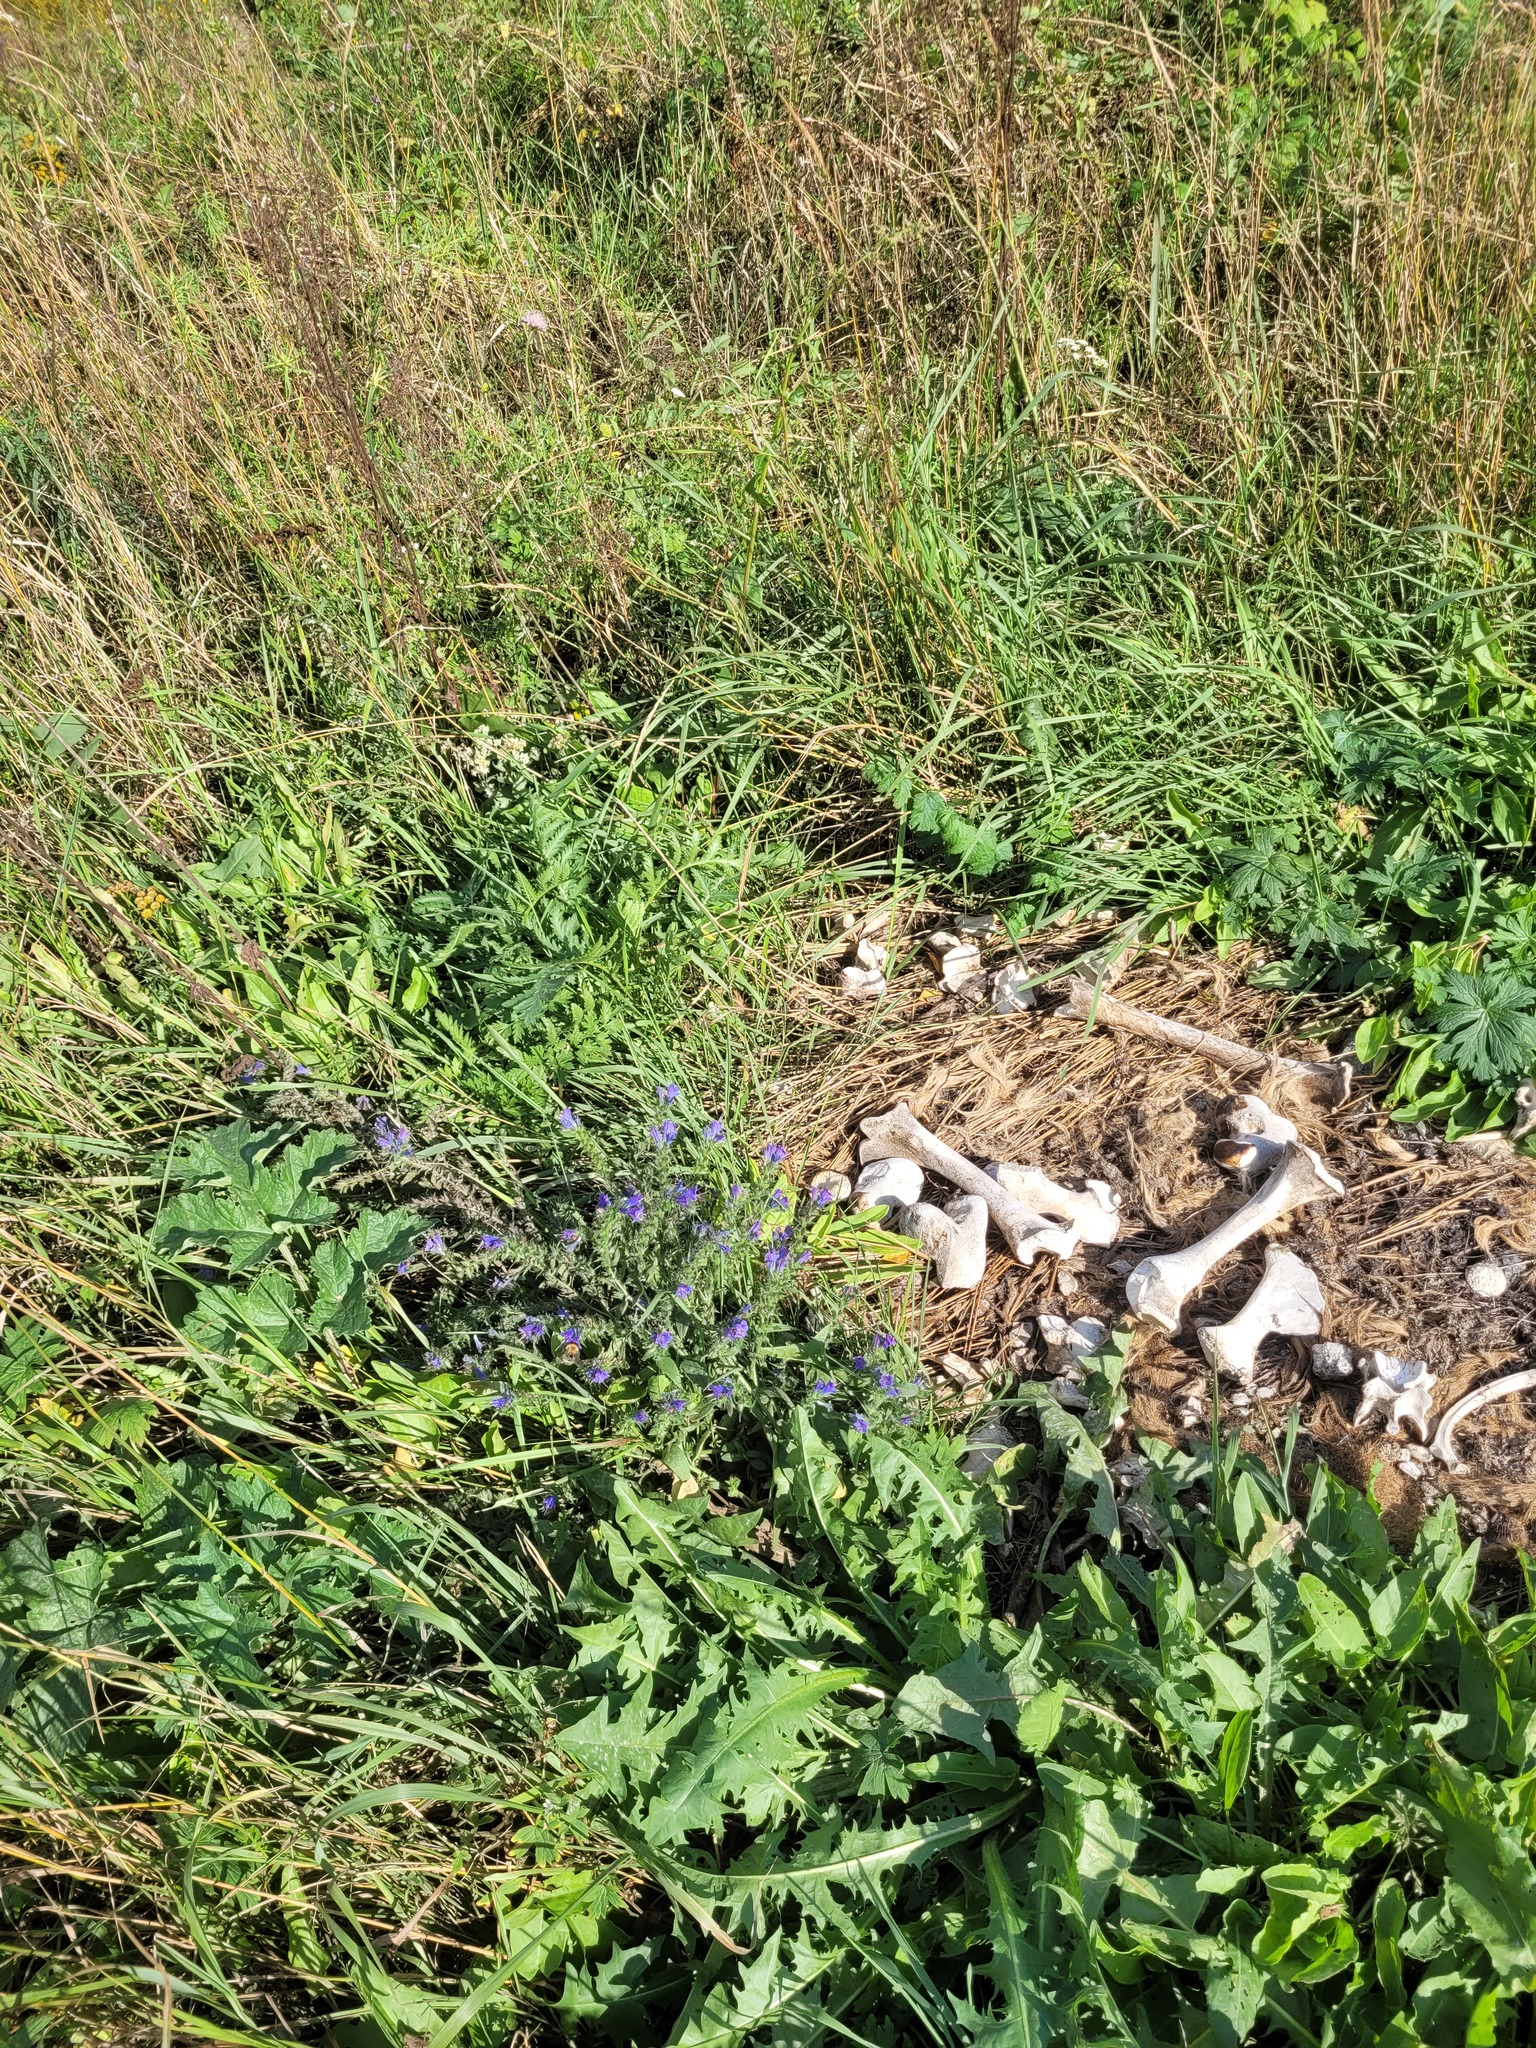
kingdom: Plantae
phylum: Tracheophyta
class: Magnoliopsida
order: Boraginales
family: Boraginaceae
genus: Echium
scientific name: Echium vulgare
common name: Common viper's bugloss
